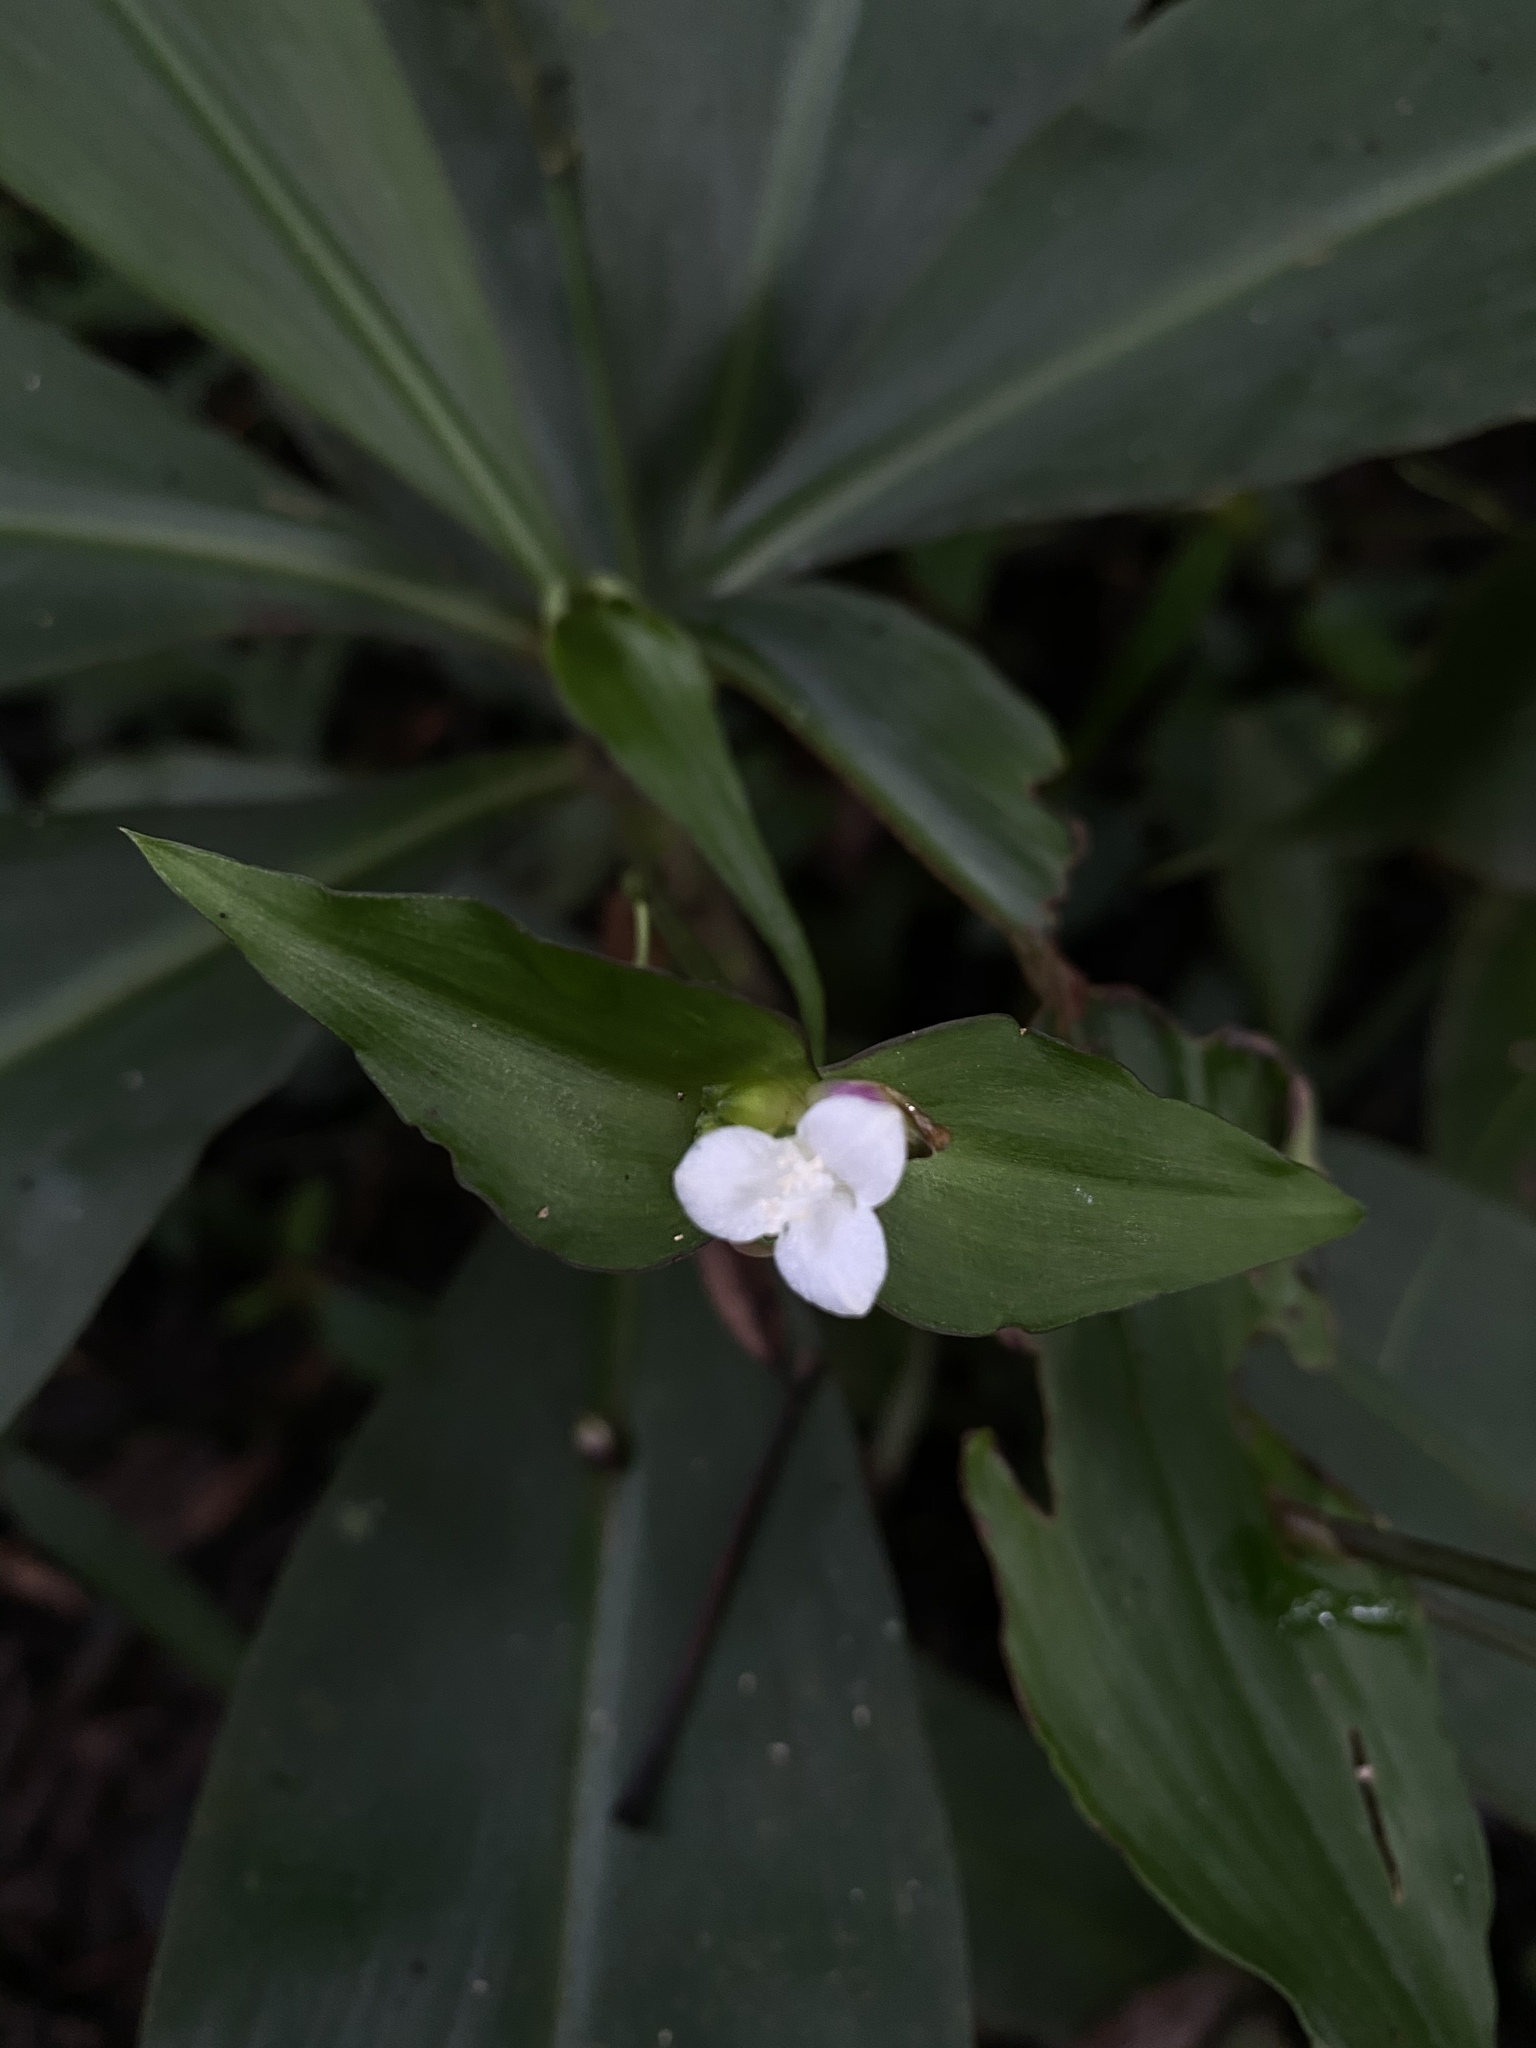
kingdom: Plantae
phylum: Tracheophyta
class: Liliopsida
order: Commelinales
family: Commelinaceae
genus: Tradescantia
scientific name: Tradescantia zanonia
